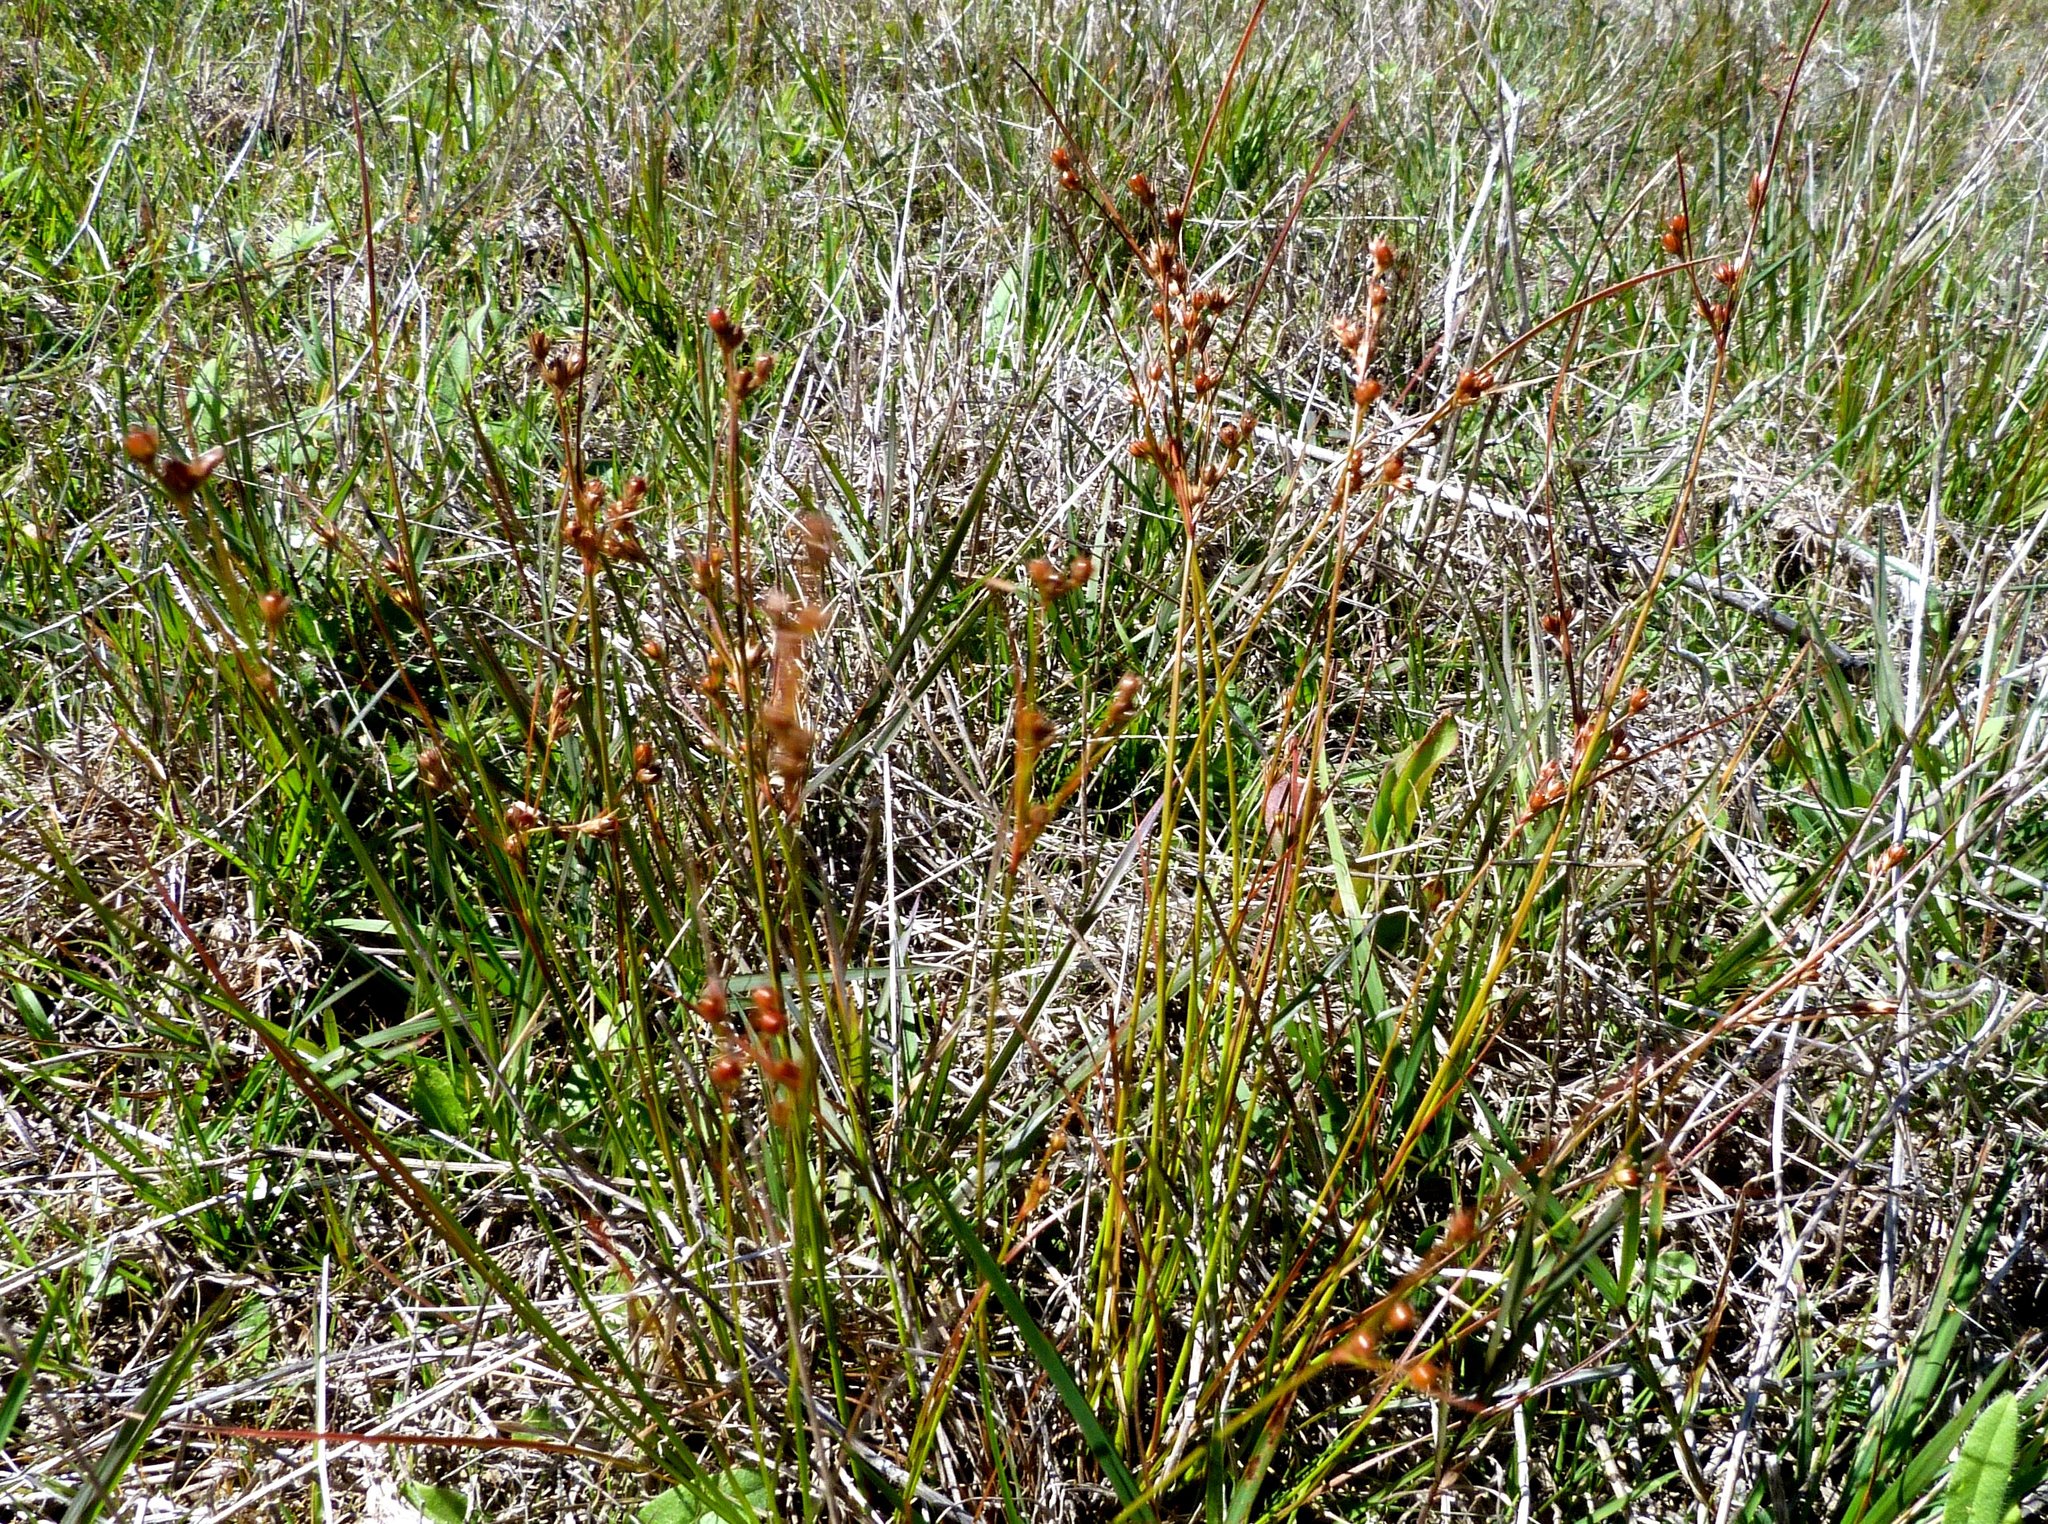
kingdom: Plantae
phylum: Tracheophyta
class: Liliopsida
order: Poales
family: Juncaceae
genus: Juncus
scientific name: Juncus tenuis
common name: Slender rush
